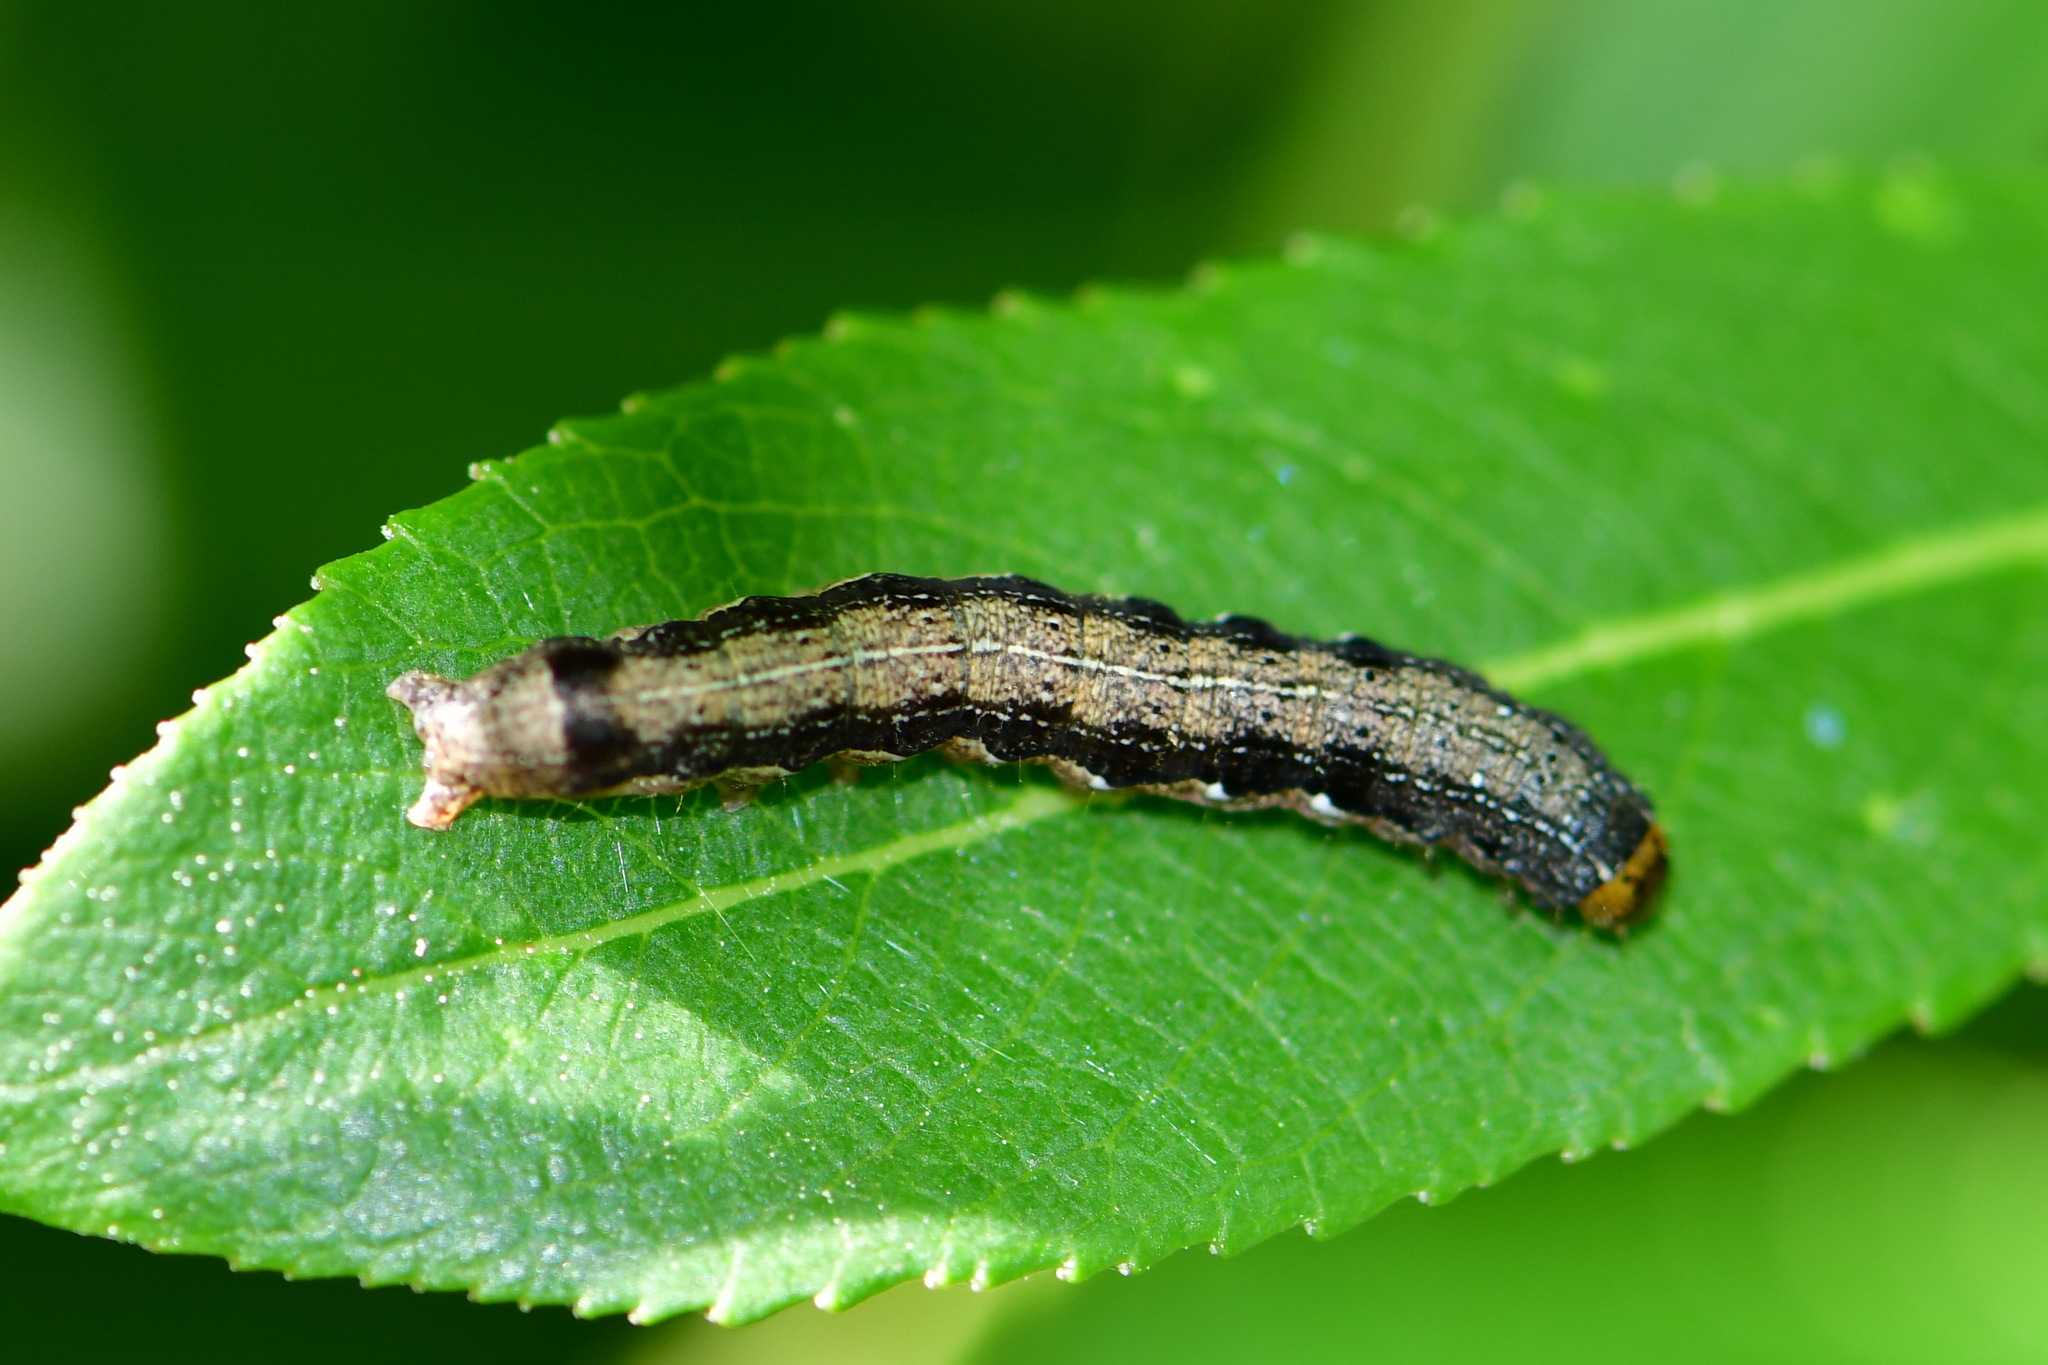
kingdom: Animalia
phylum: Arthropoda
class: Insecta
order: Lepidoptera
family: Noctuidae
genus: Anorthoa
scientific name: Anorthoa munda
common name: Twin-spotted quaker
